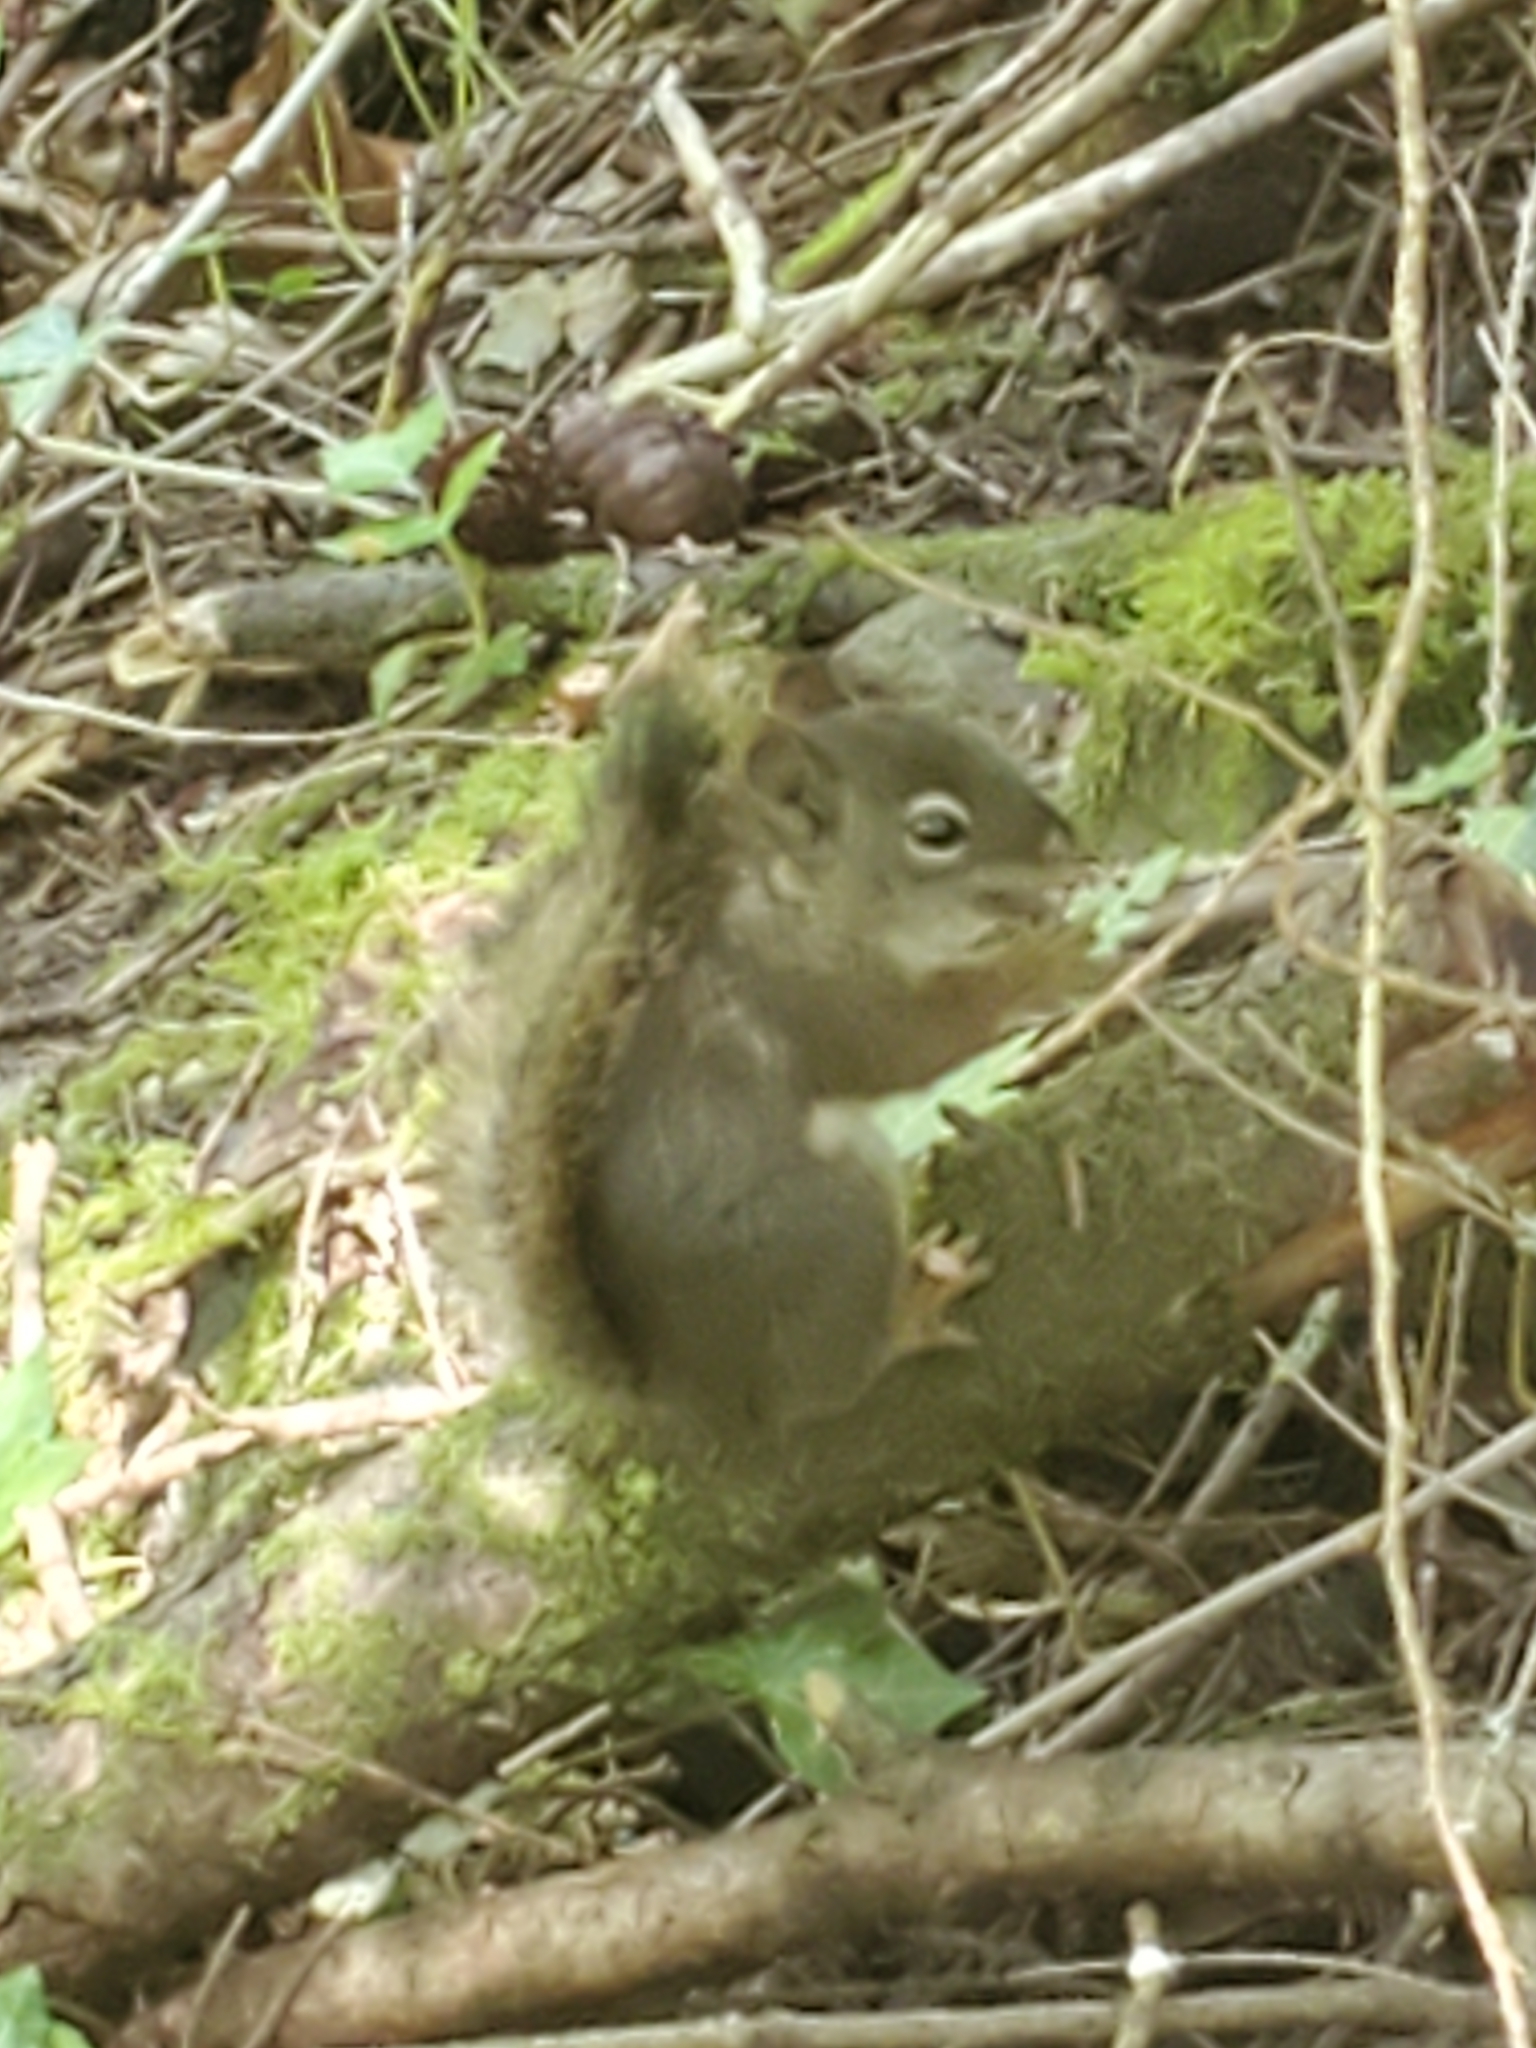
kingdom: Animalia
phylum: Chordata
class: Mammalia
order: Rodentia
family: Sciuridae
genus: Tamiasciurus
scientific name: Tamiasciurus hudsonicus
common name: Red squirrel
